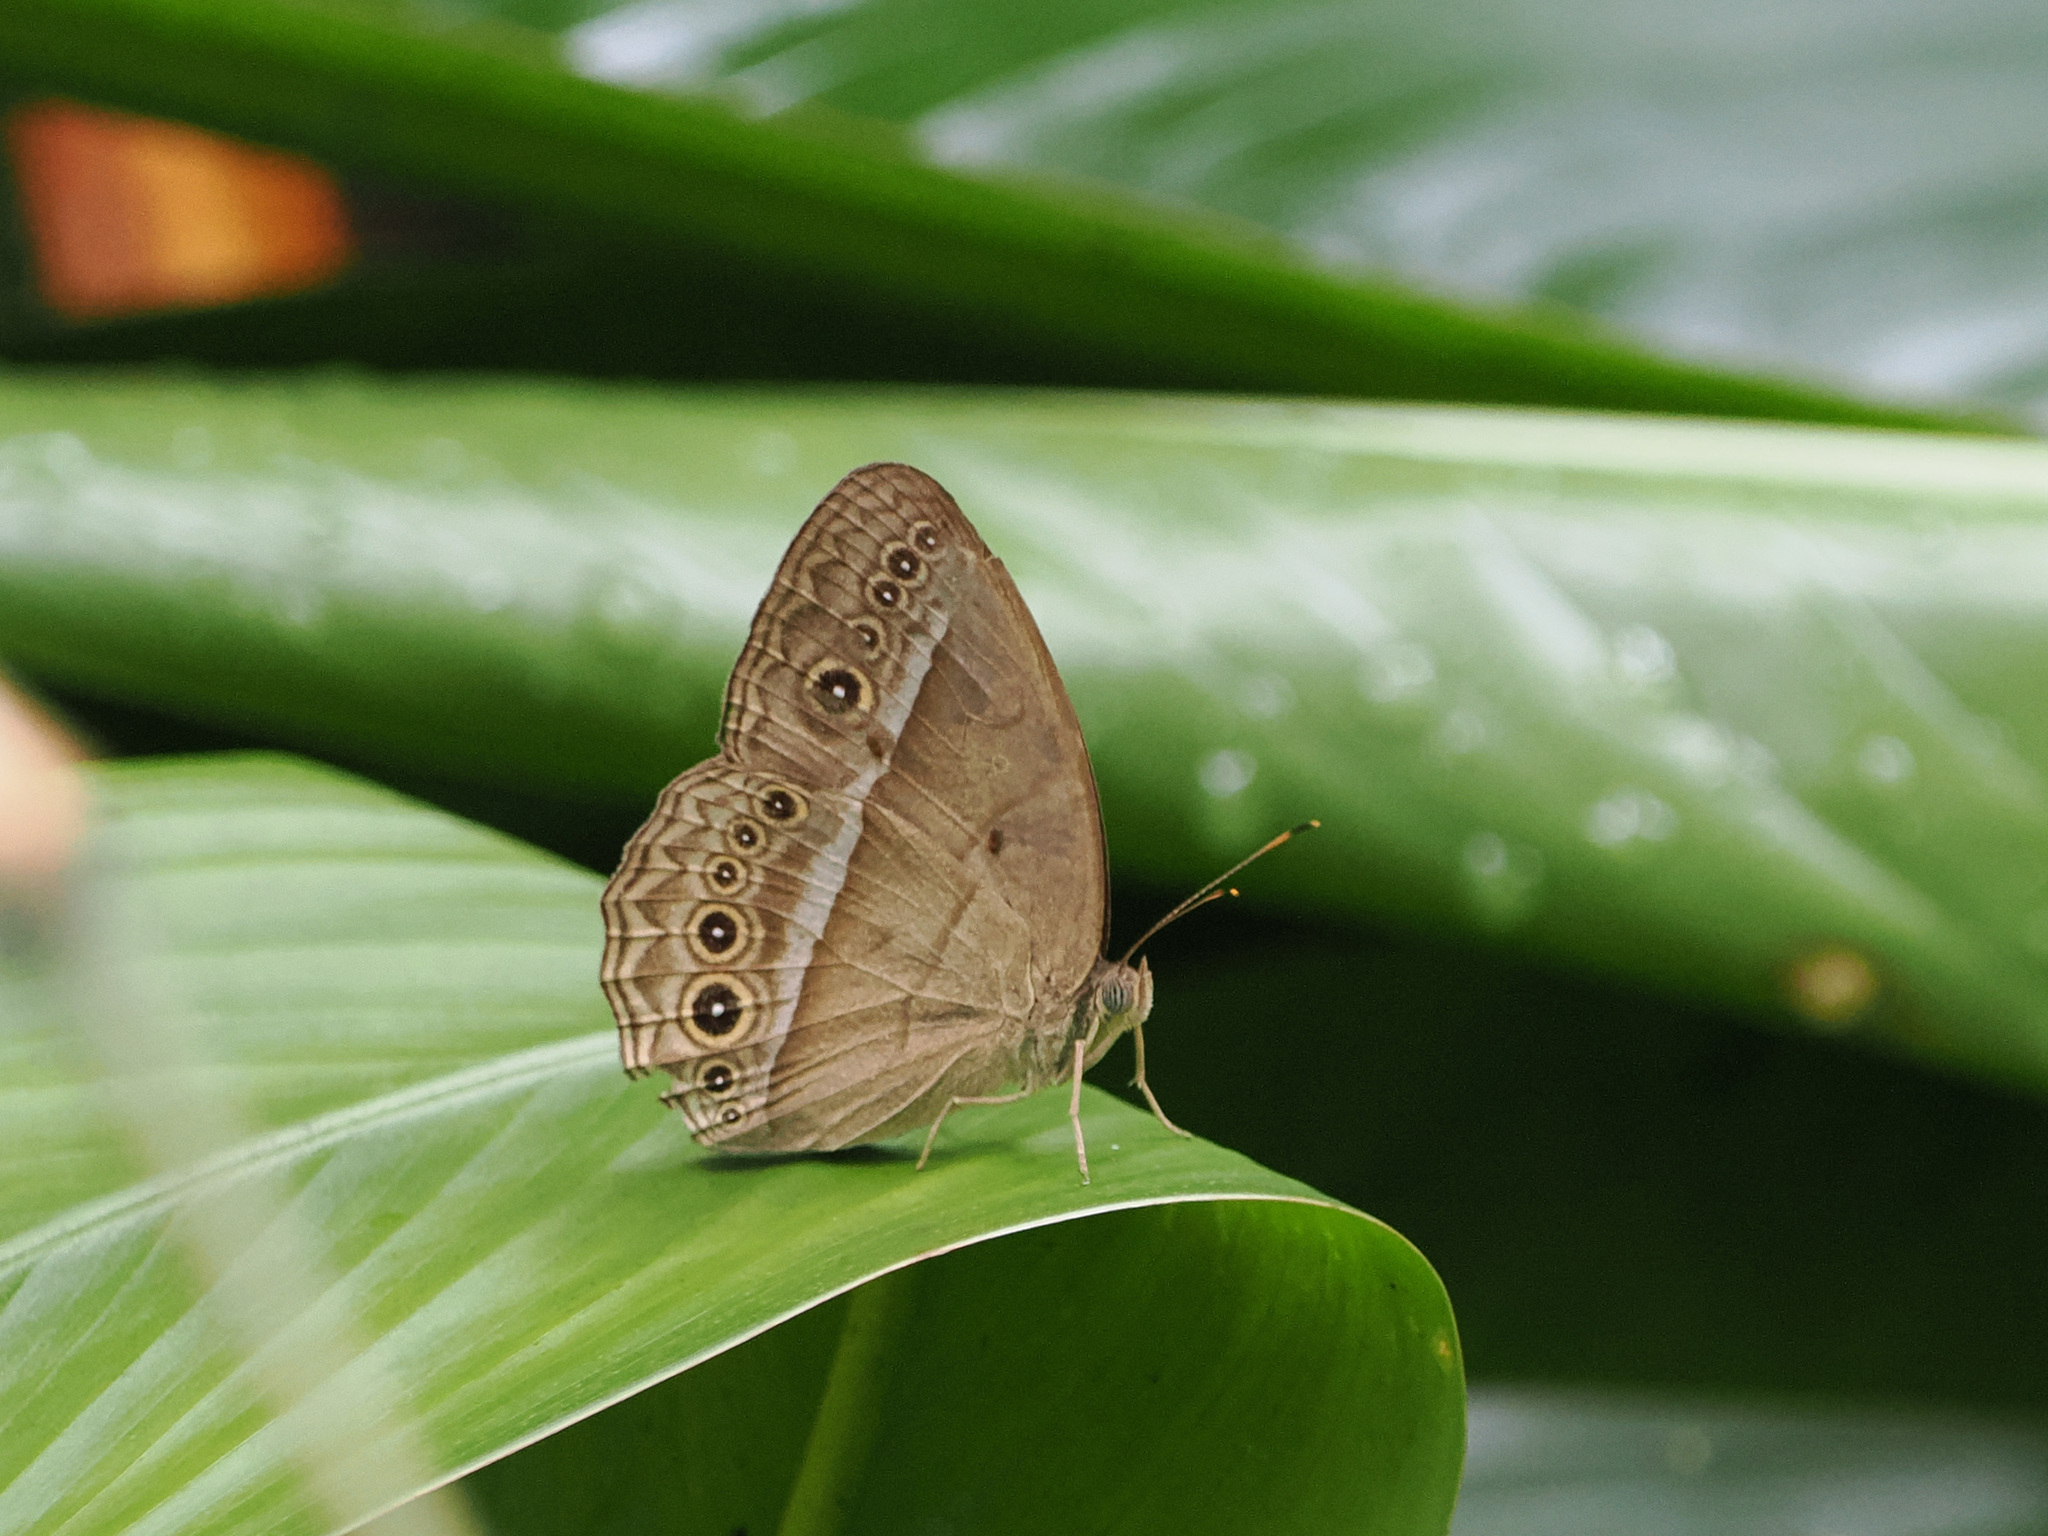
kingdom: Animalia
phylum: Arthropoda
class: Insecta
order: Lepidoptera
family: Nymphalidae
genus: Mycalesis
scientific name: Mycalesis orseis
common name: Purple bushbrown
